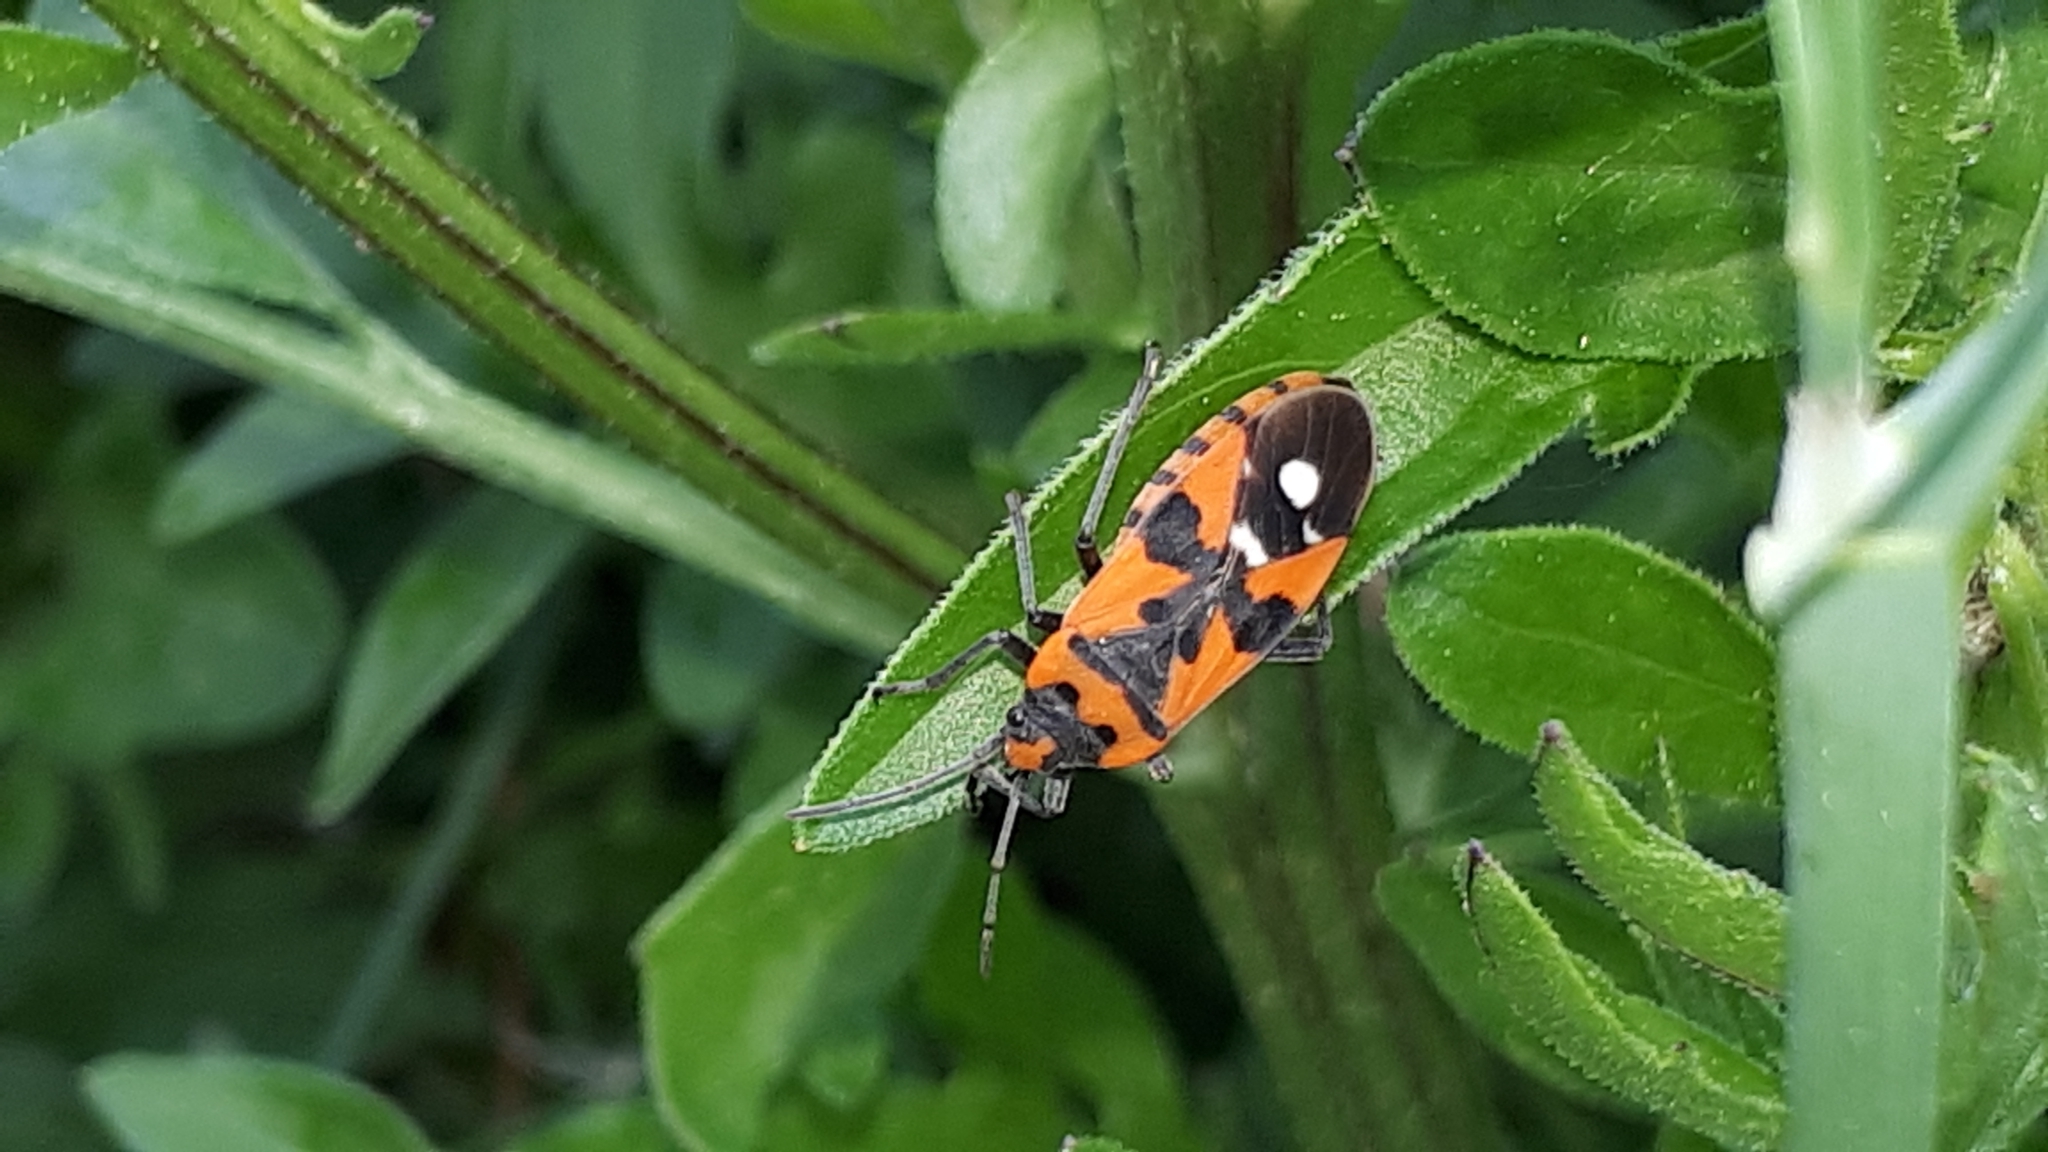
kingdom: Animalia
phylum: Arthropoda
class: Insecta
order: Hemiptera
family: Lygaeidae
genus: Lygaeus
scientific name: Lygaeus equestris
